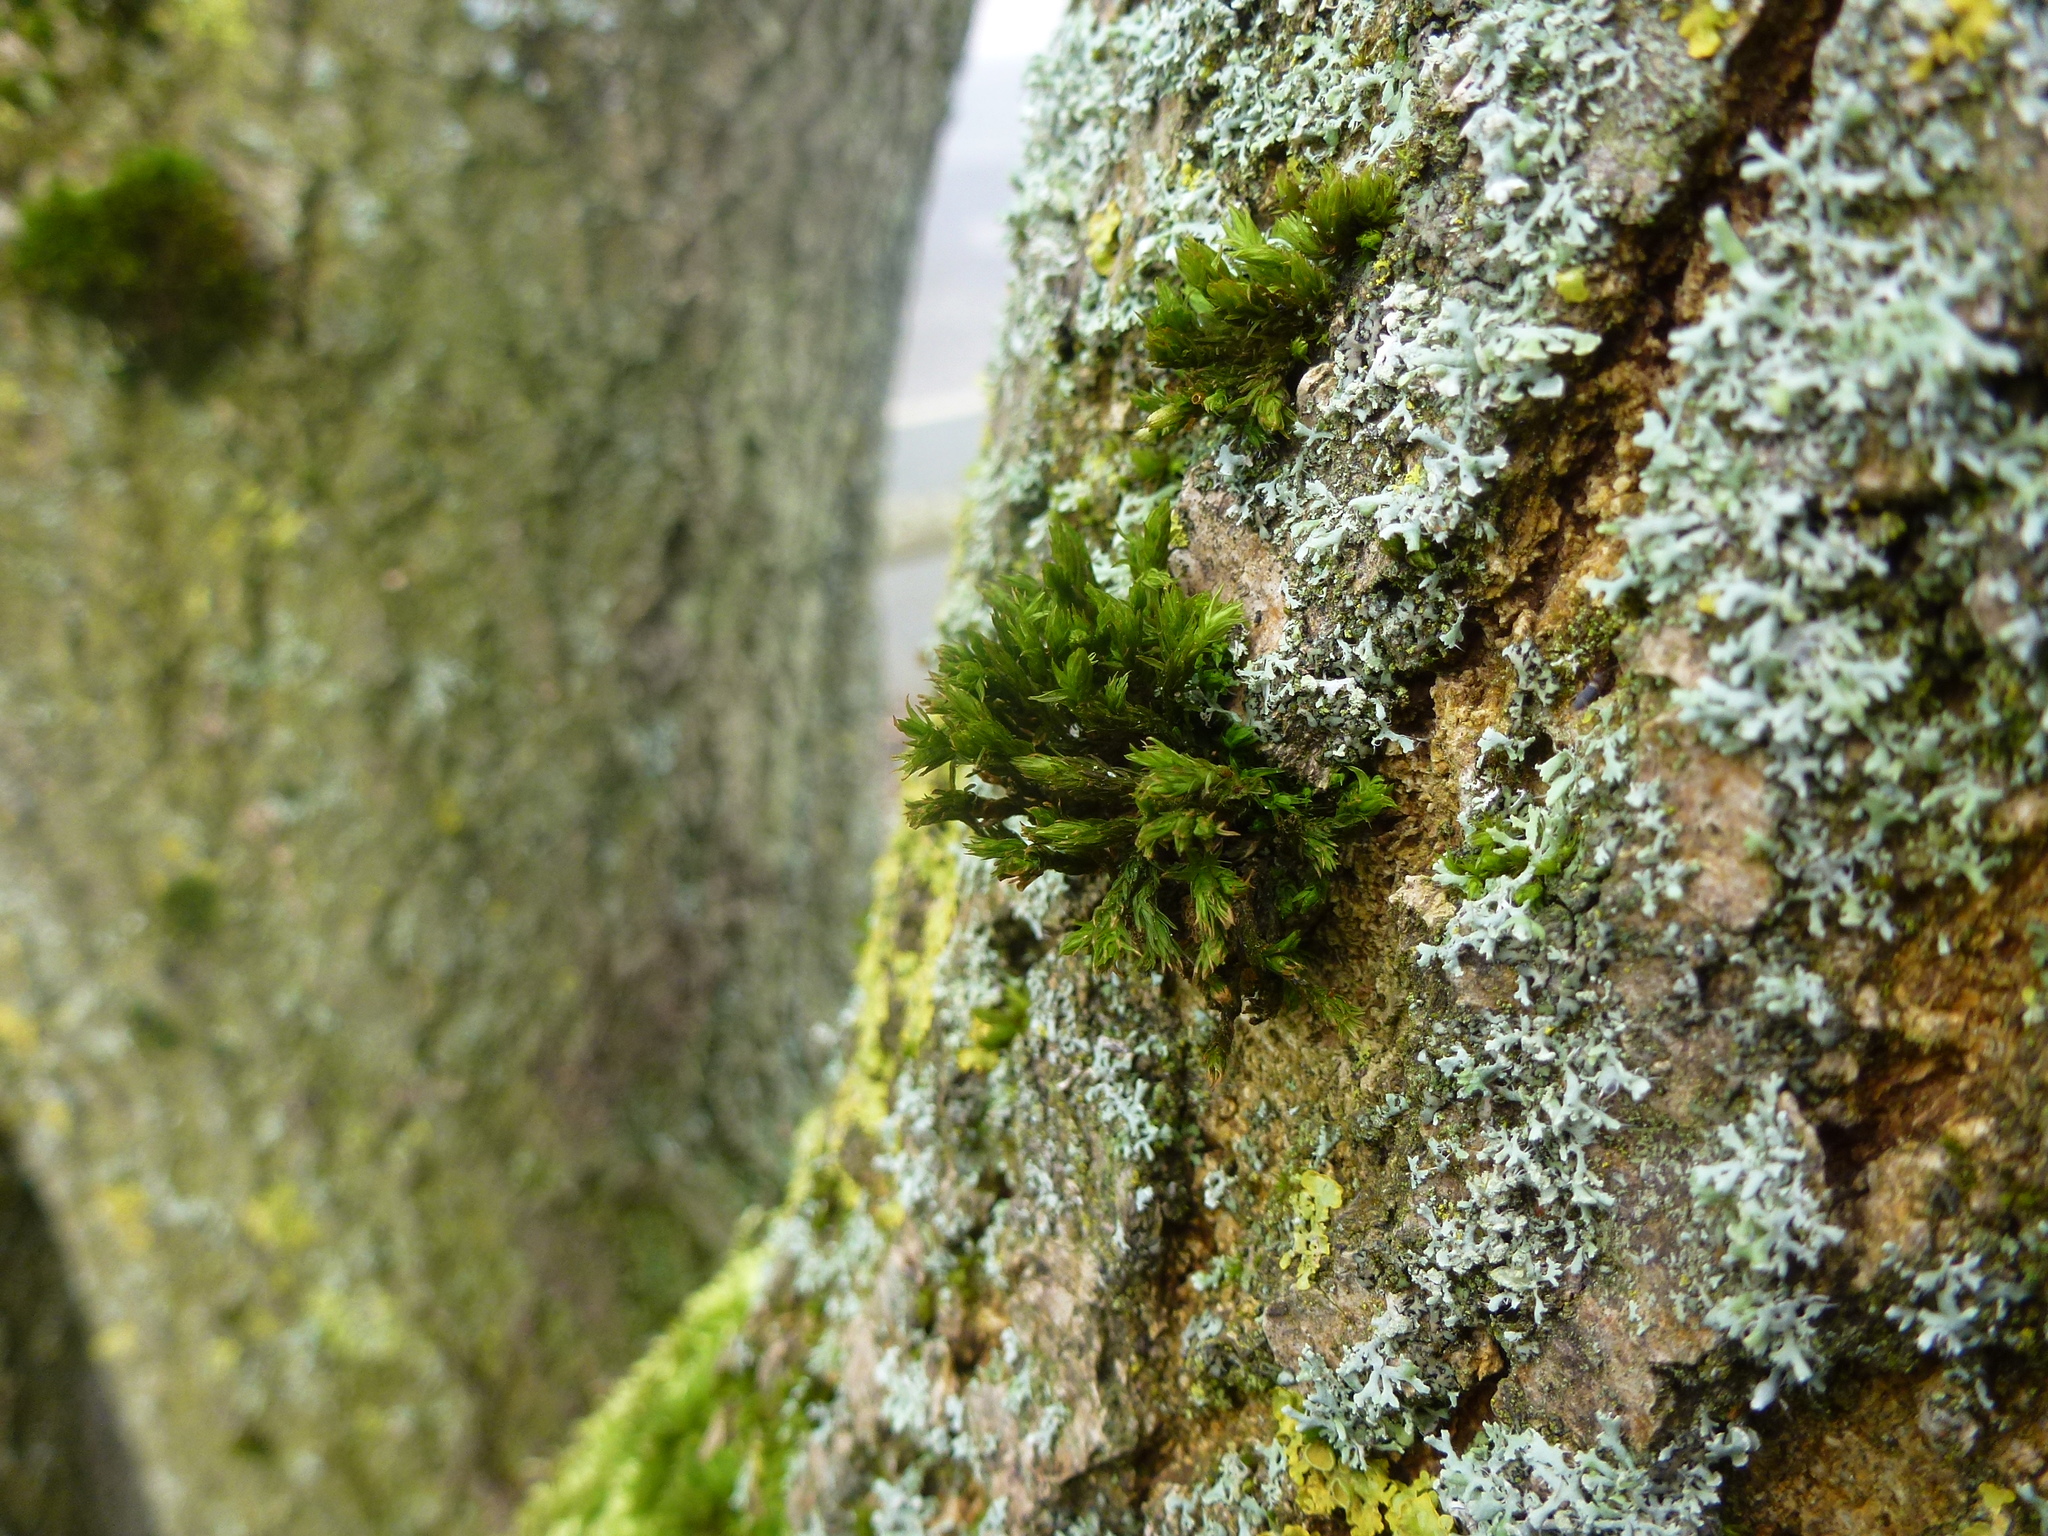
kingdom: Plantae
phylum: Bryophyta
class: Bryopsida
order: Orthotrichales
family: Orthotrichaceae
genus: Lewinskya
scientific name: Lewinskya affinis
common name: Wood bristle-moss
